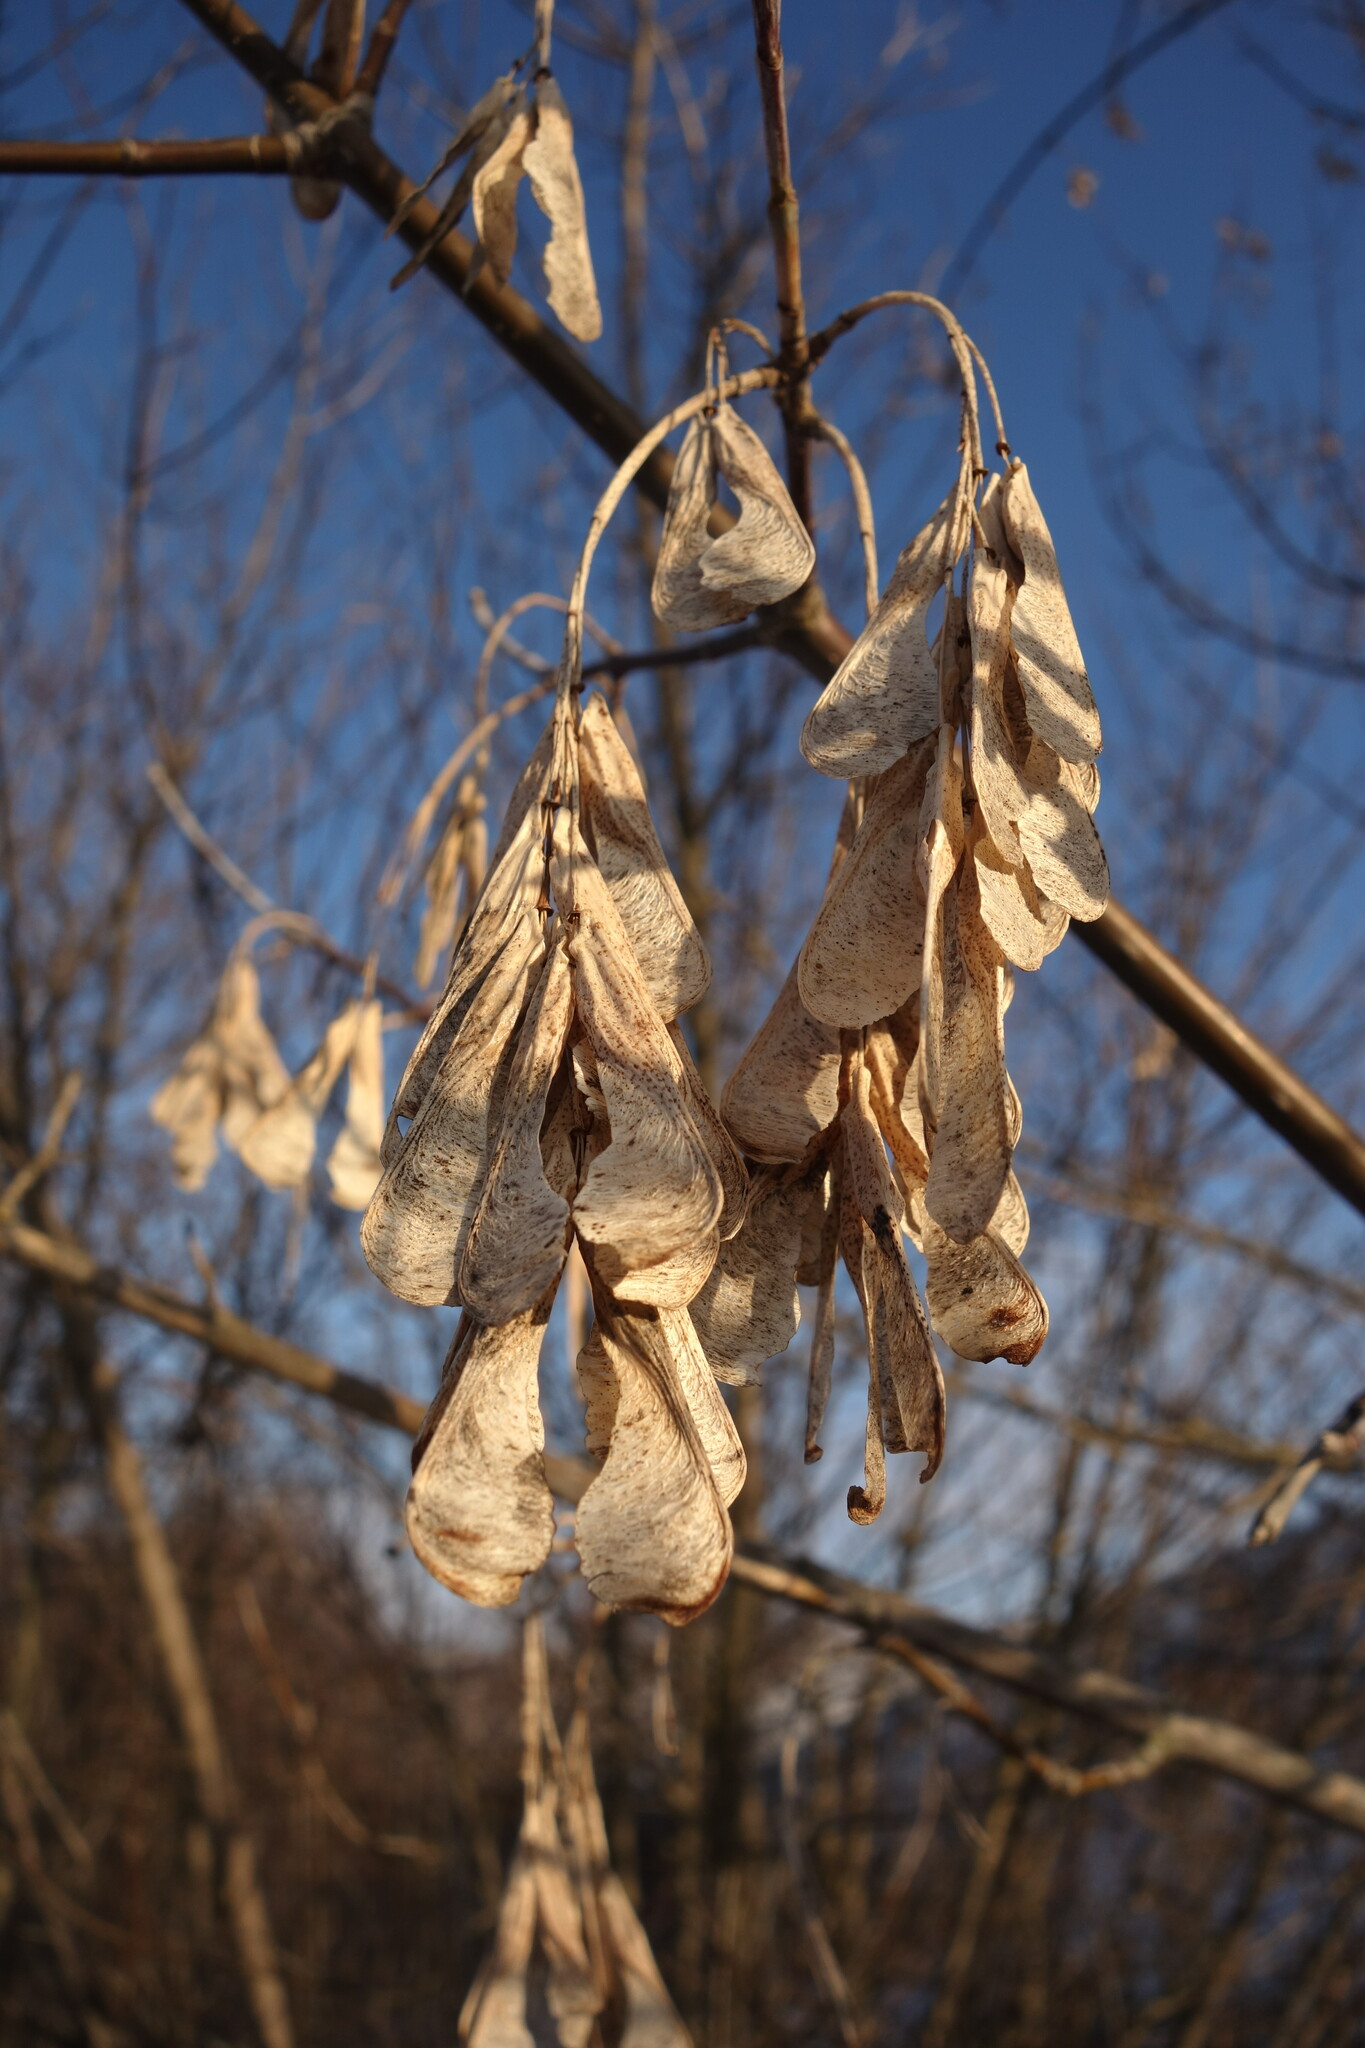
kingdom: Plantae
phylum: Tracheophyta
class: Magnoliopsida
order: Sapindales
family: Sapindaceae
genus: Acer
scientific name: Acer negundo
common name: Ashleaf maple
